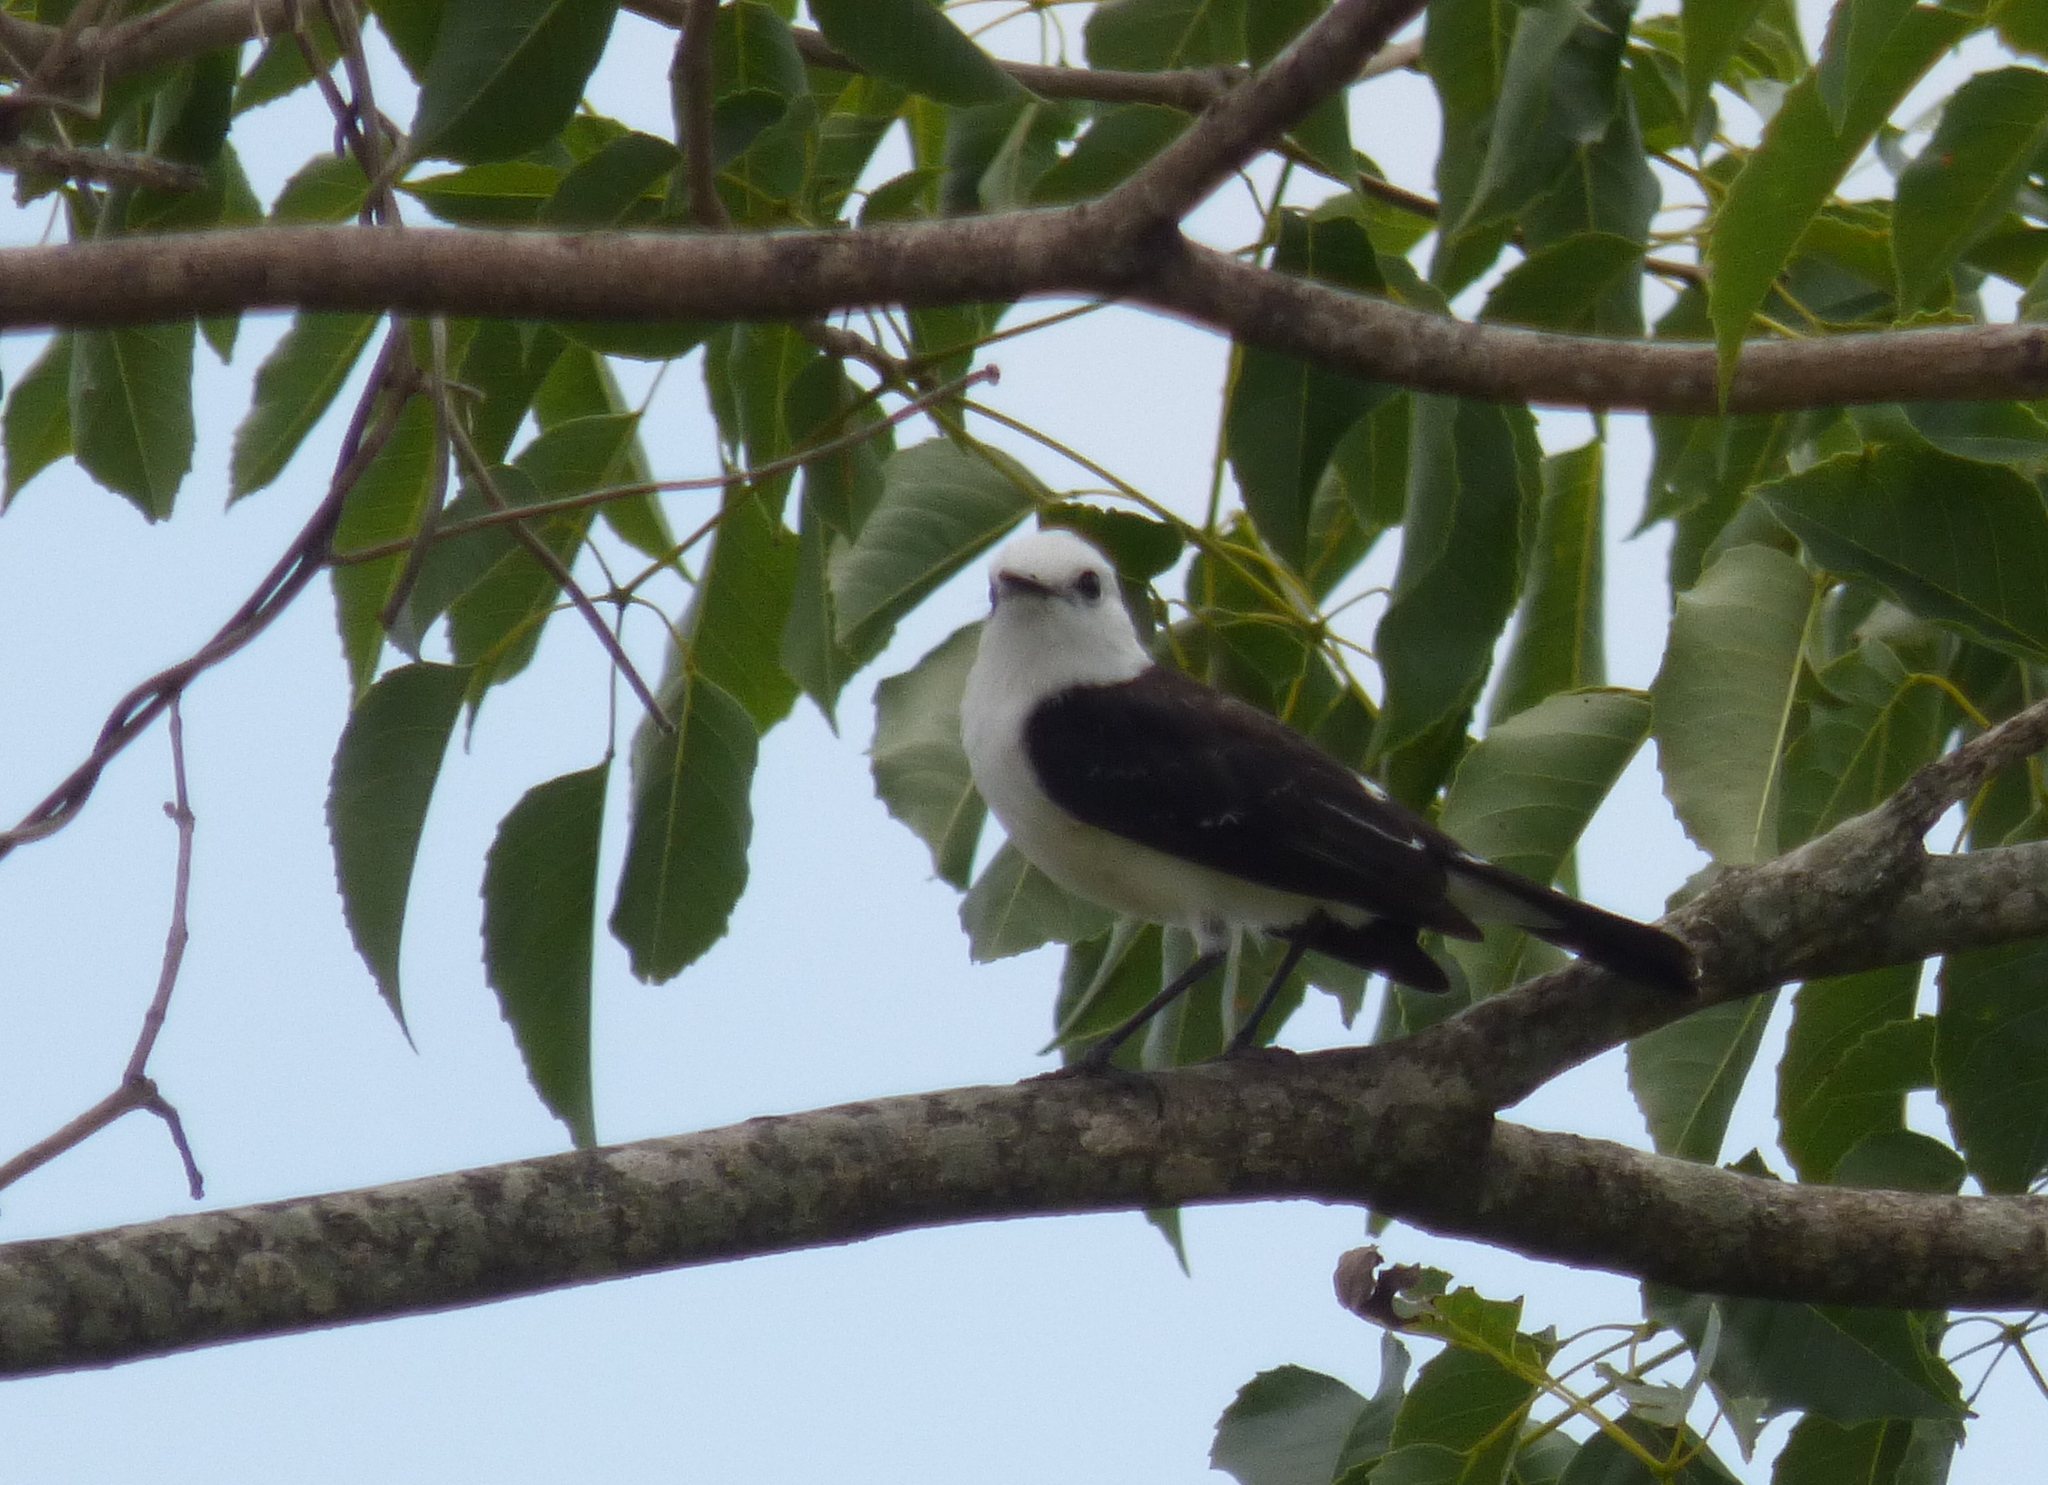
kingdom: Animalia
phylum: Chordata
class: Aves
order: Passeriformes
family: Tyrannidae
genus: Fluvicola
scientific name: Fluvicola pica
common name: Pied water-tyrant
